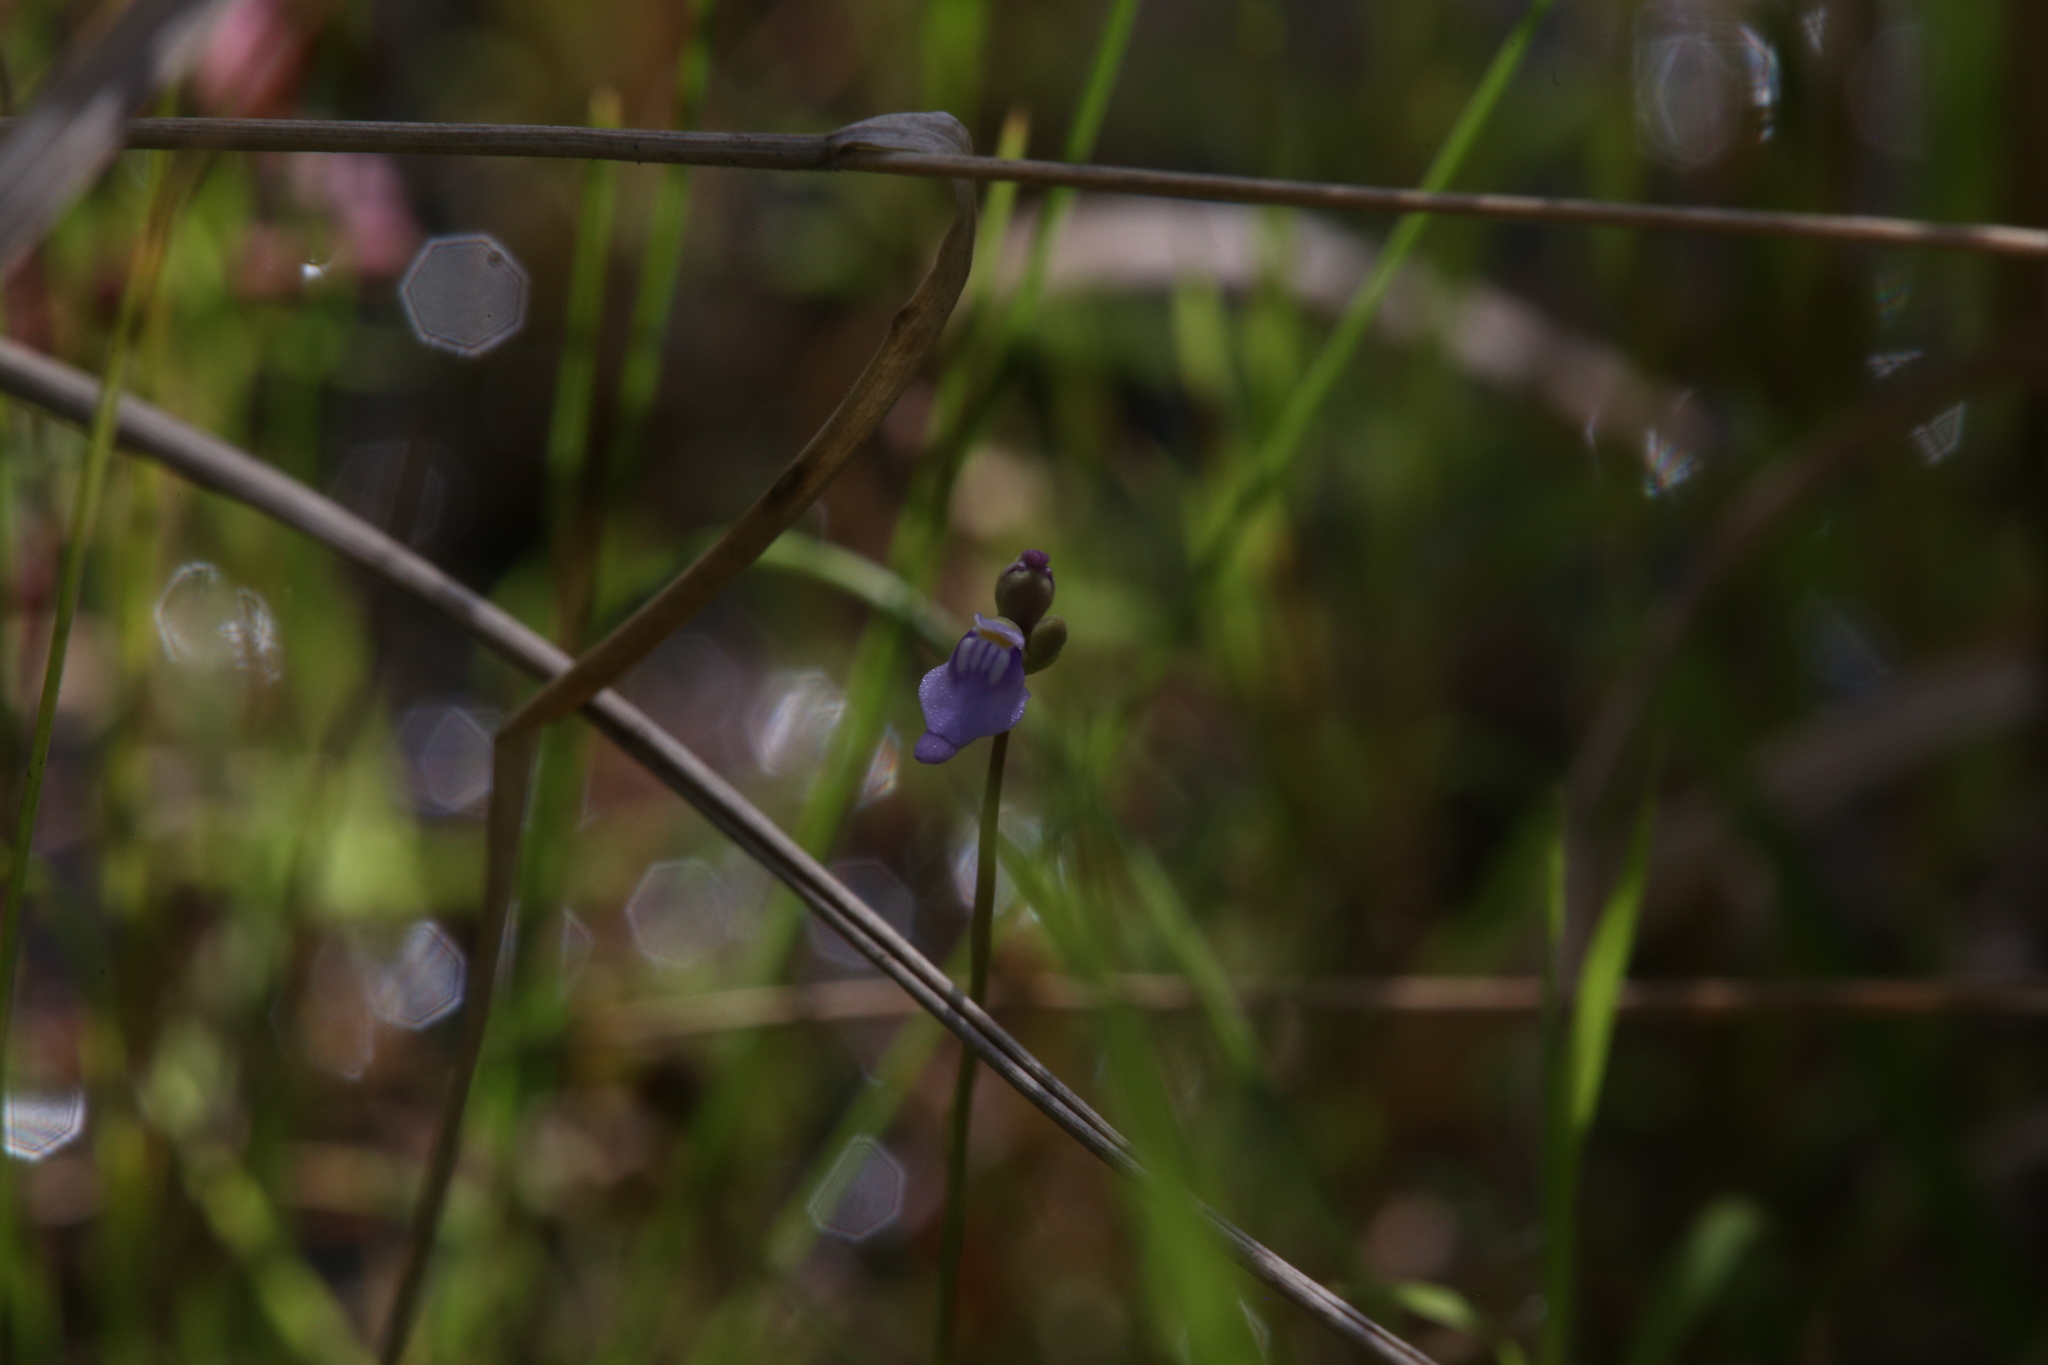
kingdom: Plantae
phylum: Tracheophyta
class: Magnoliopsida
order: Lamiales
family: Lentibulariaceae
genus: Utricularia
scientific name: Utricularia caerulea
